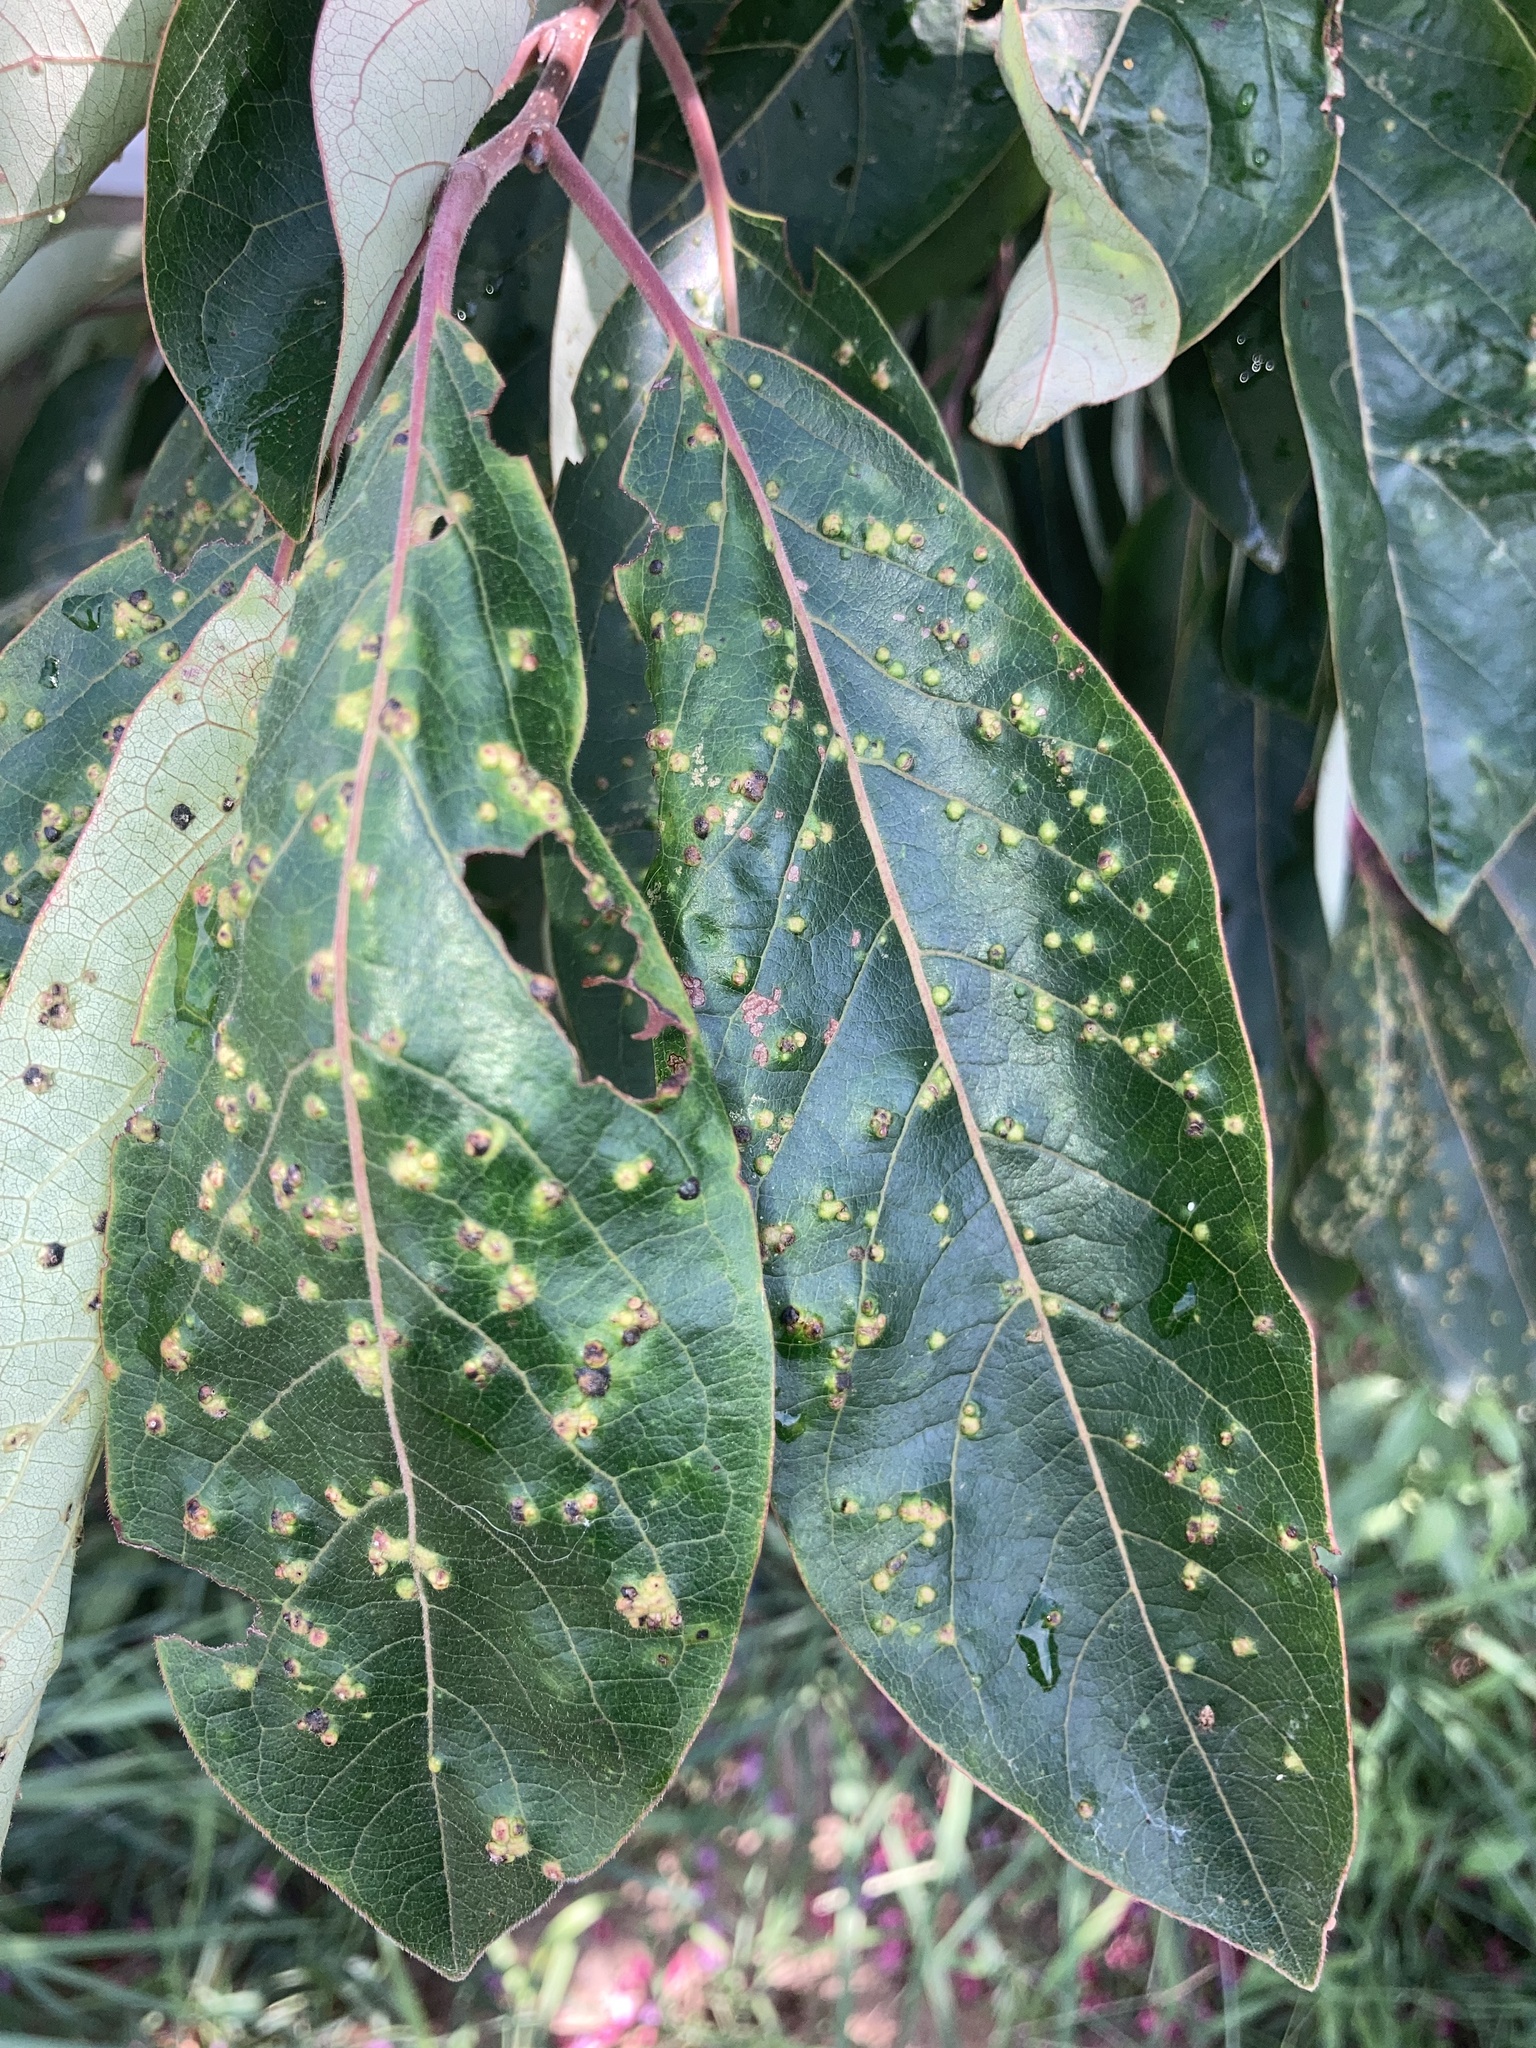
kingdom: Animalia
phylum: Arthropoda
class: Arachnida
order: Trombidiformes
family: Eriophyidae
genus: Aceria
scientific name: Aceria
